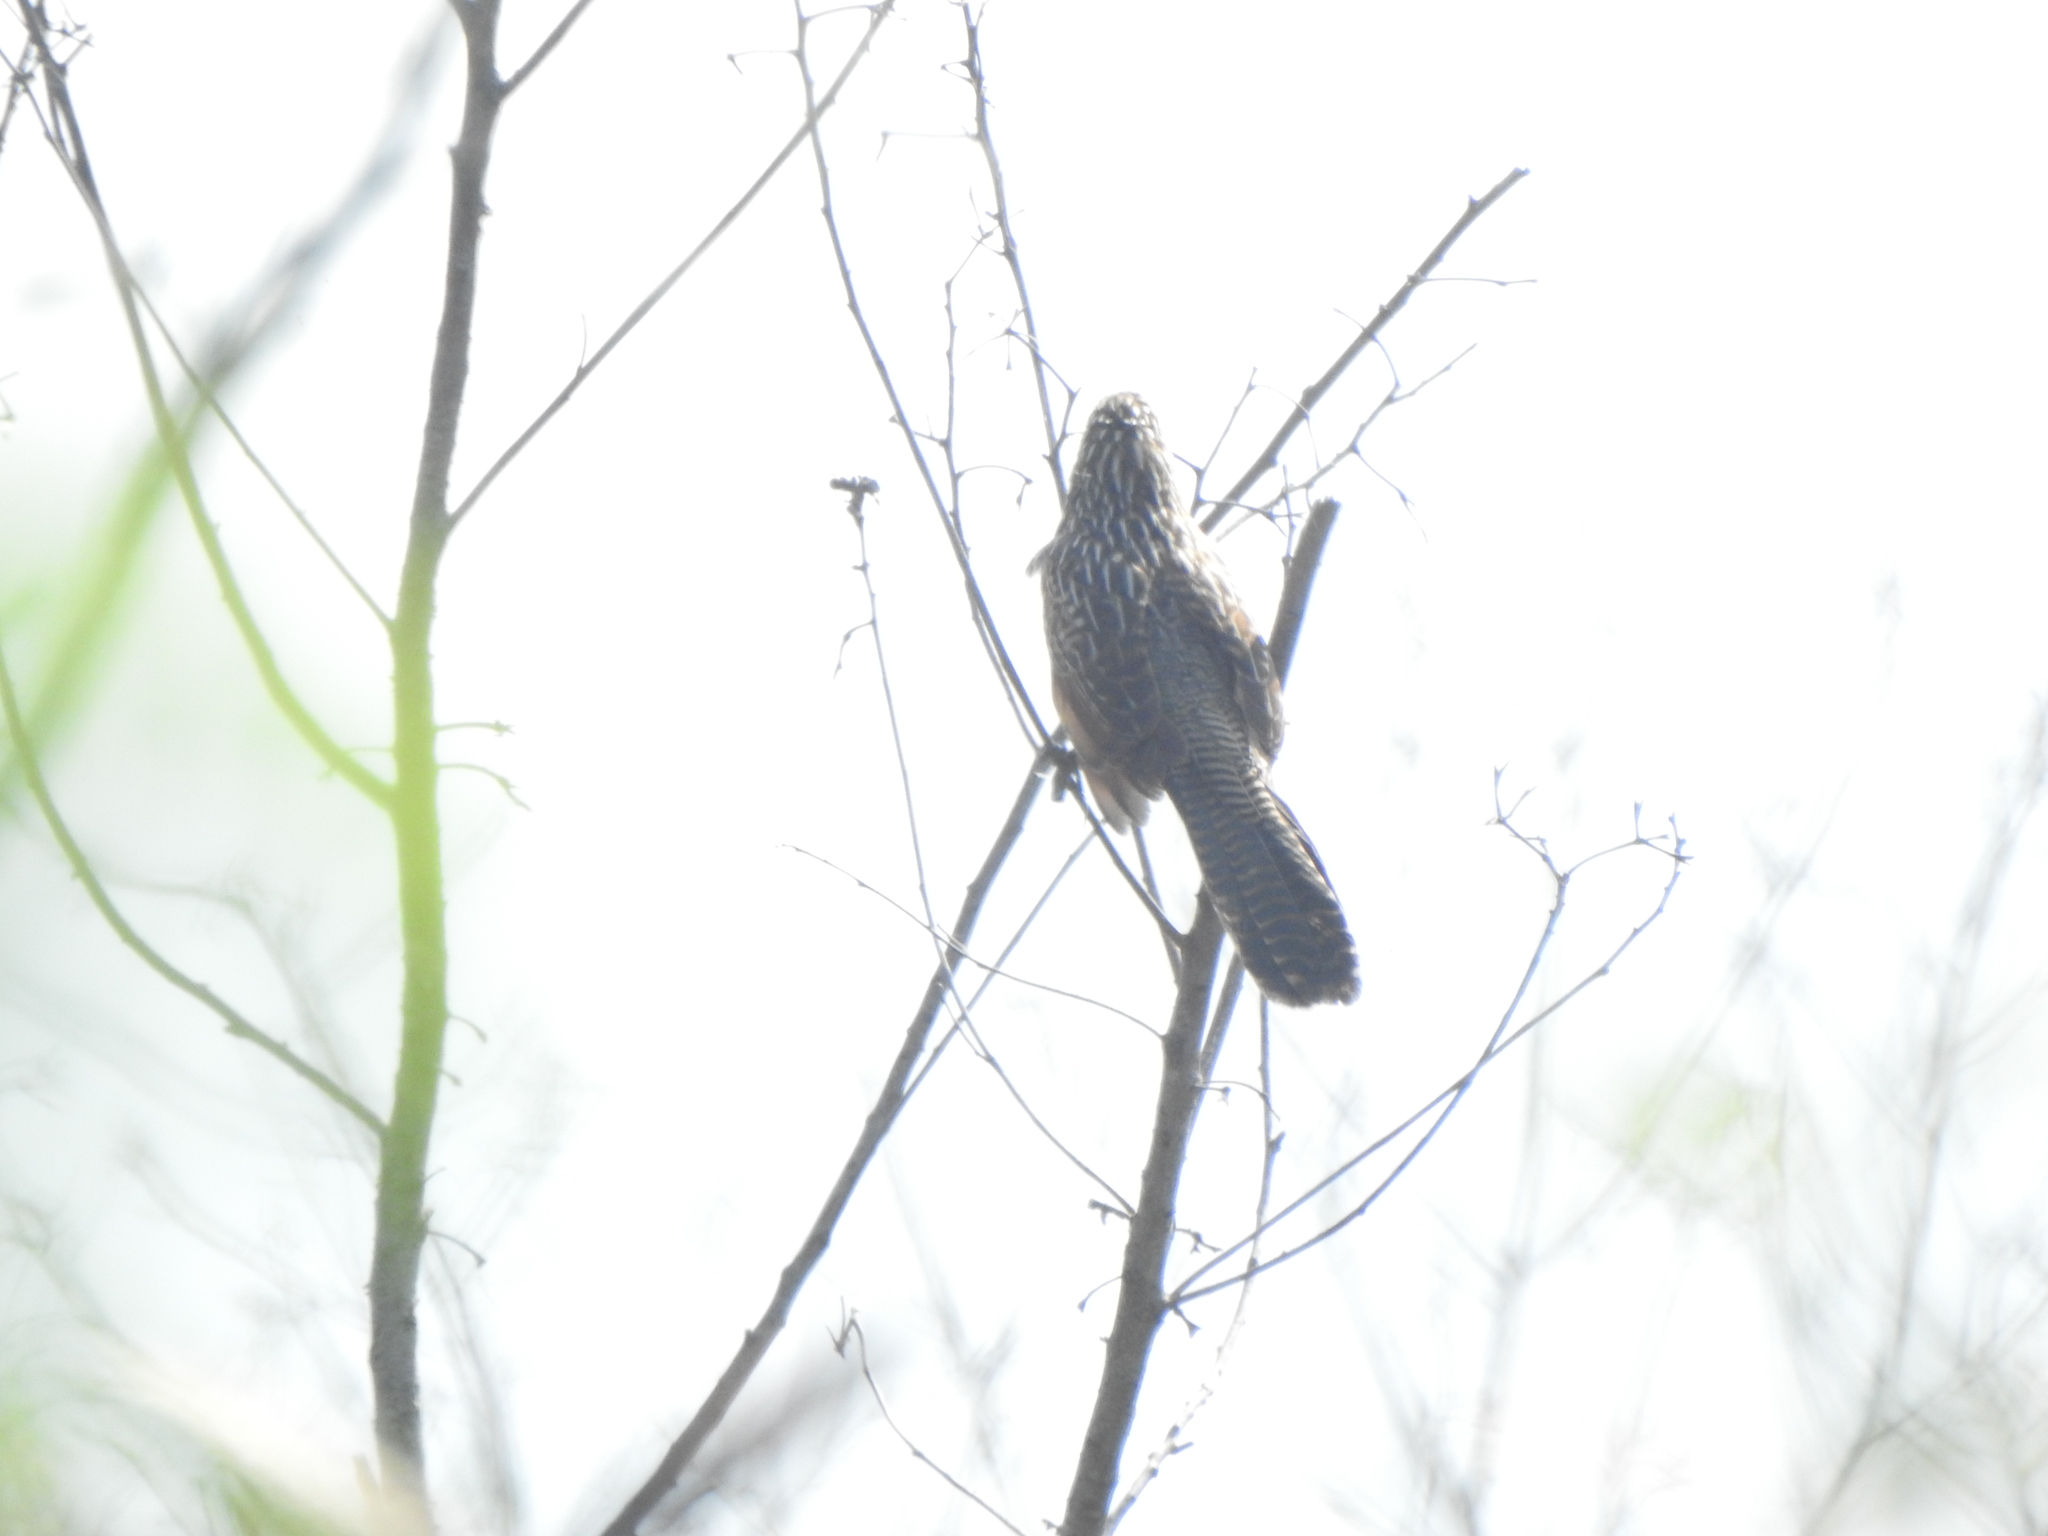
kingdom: Animalia
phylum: Chordata
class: Aves
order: Cuculiformes
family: Cuculidae
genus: Centropus
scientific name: Centropus bengalensis
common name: Lesser coucal
